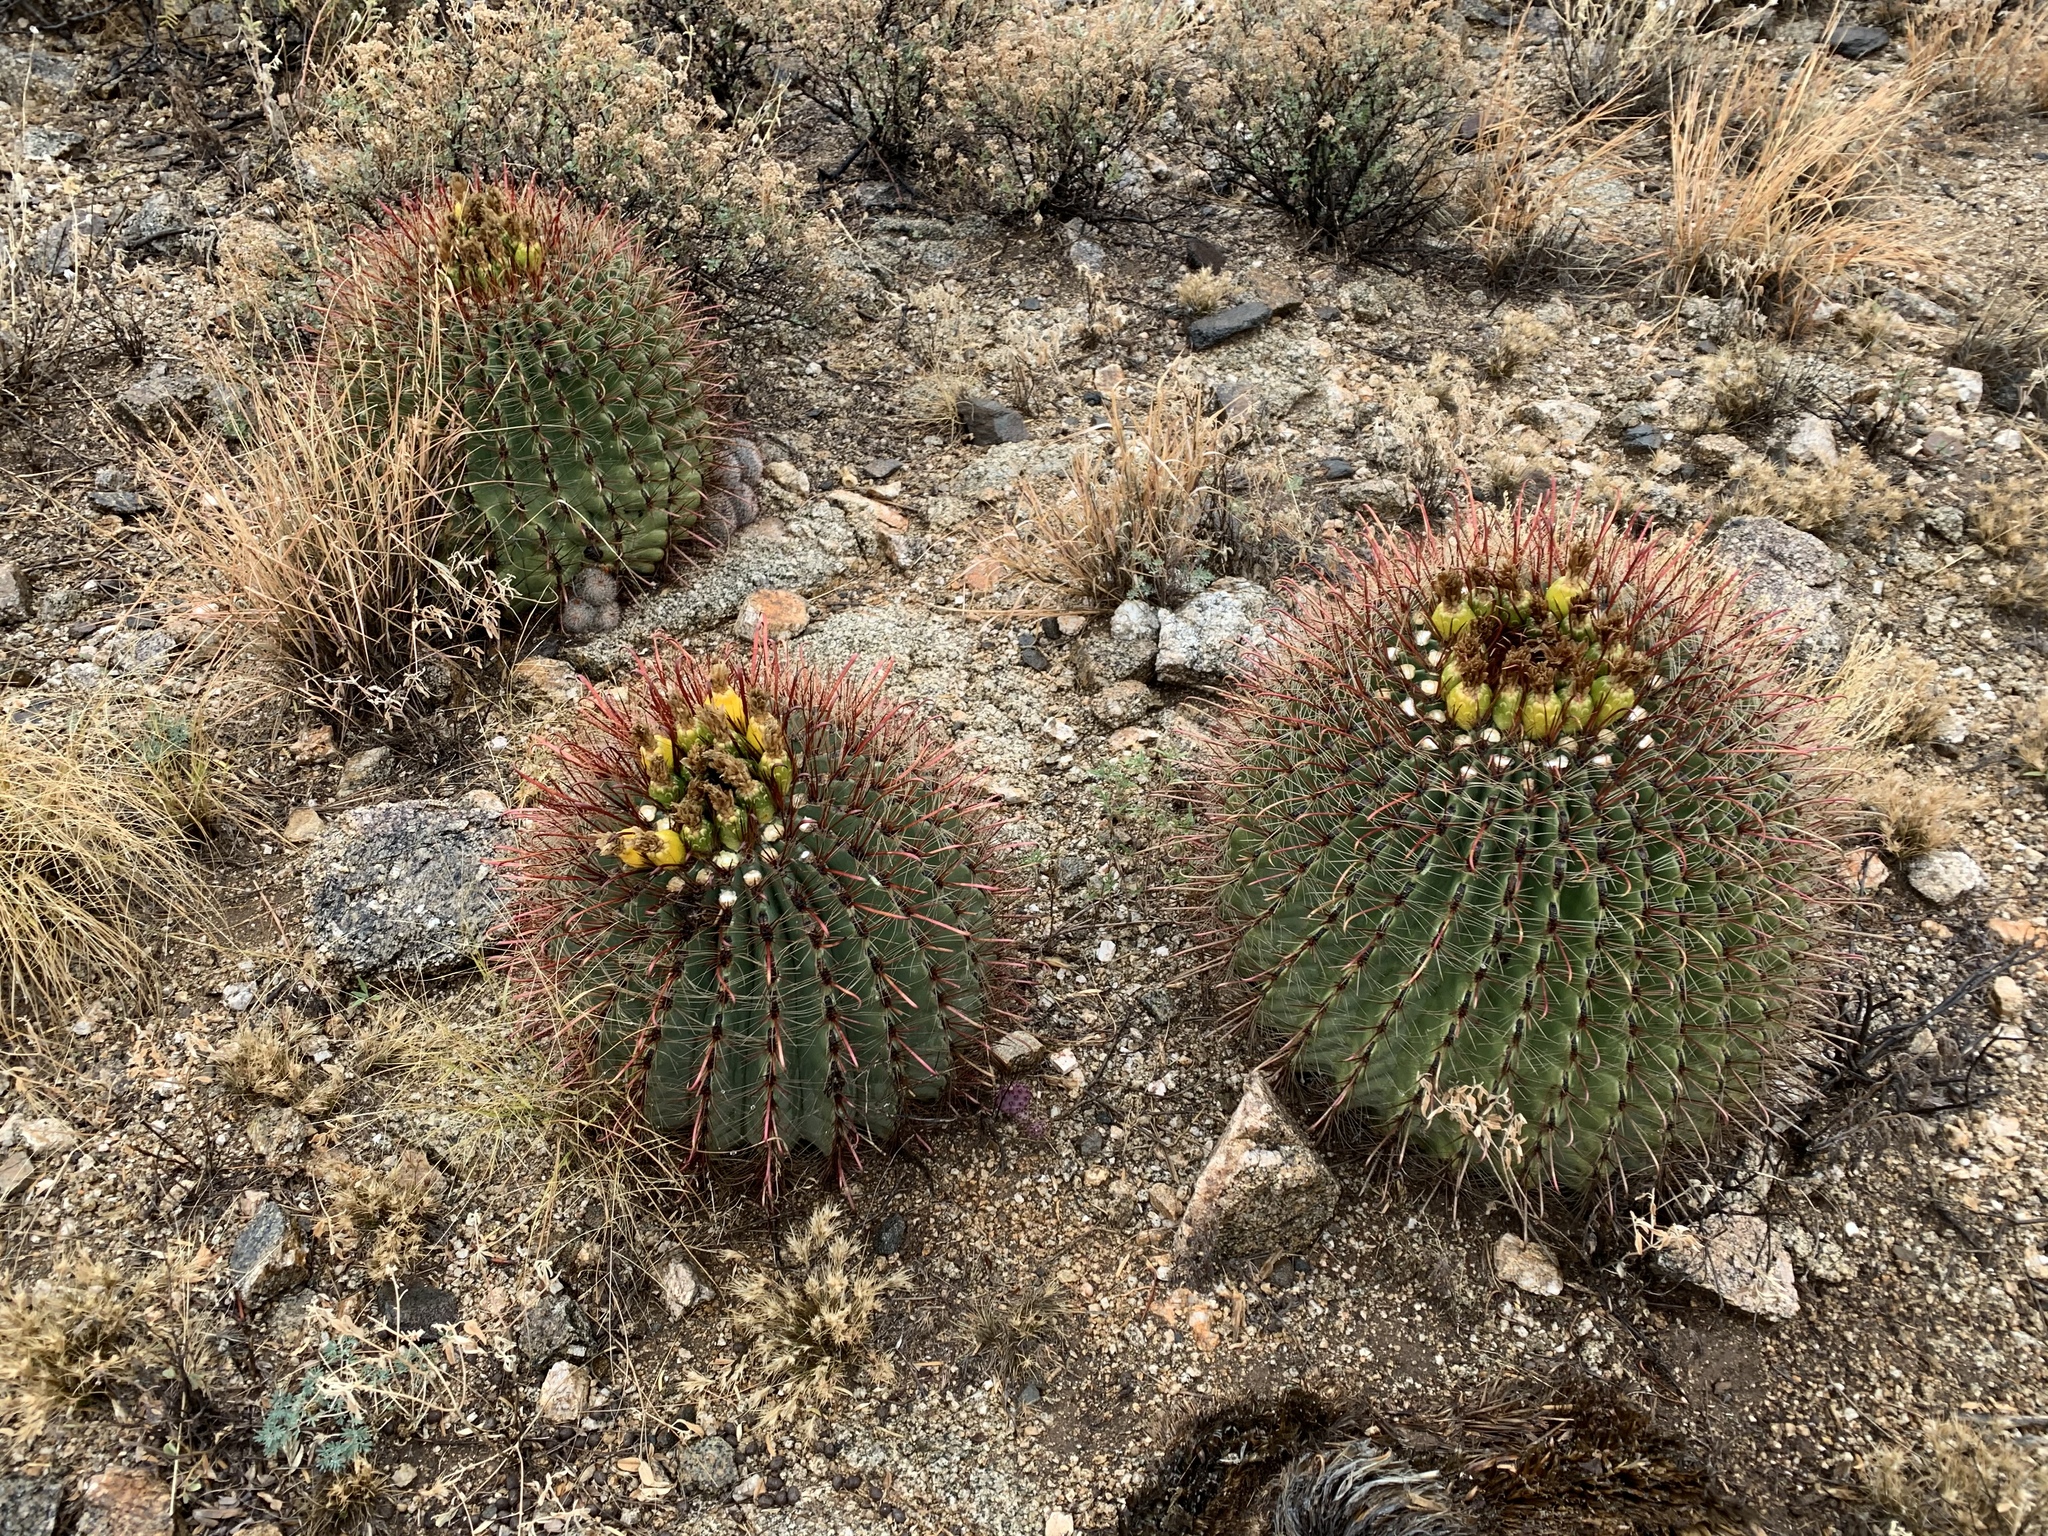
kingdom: Plantae
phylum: Tracheophyta
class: Magnoliopsida
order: Caryophyllales
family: Cactaceae
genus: Ferocactus
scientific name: Ferocactus wislizeni
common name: Candy barrel cactus
